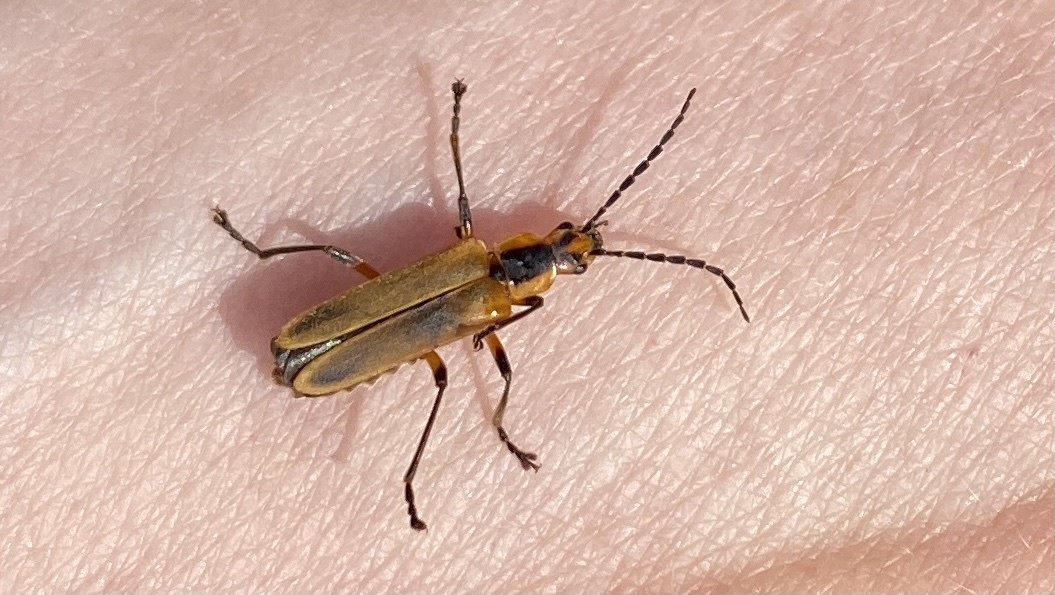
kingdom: Animalia
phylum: Arthropoda
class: Insecta
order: Coleoptera
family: Cantharidae
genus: Chauliognathus
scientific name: Chauliognathus marginatus
